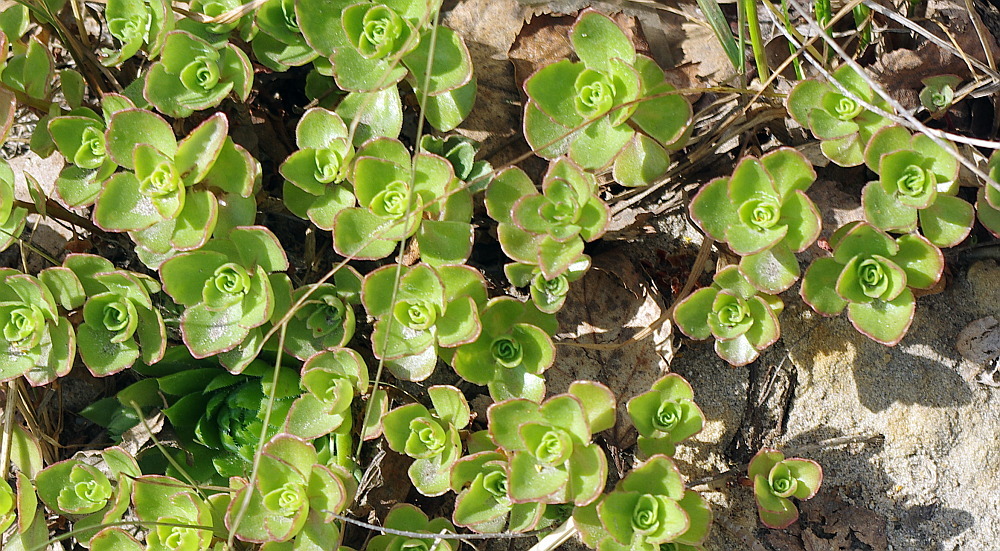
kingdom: Plantae
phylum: Tracheophyta
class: Magnoliopsida
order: Saxifragales
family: Crassulaceae
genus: Phedimus
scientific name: Phedimus spurius
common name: Caucasian stonecrop
